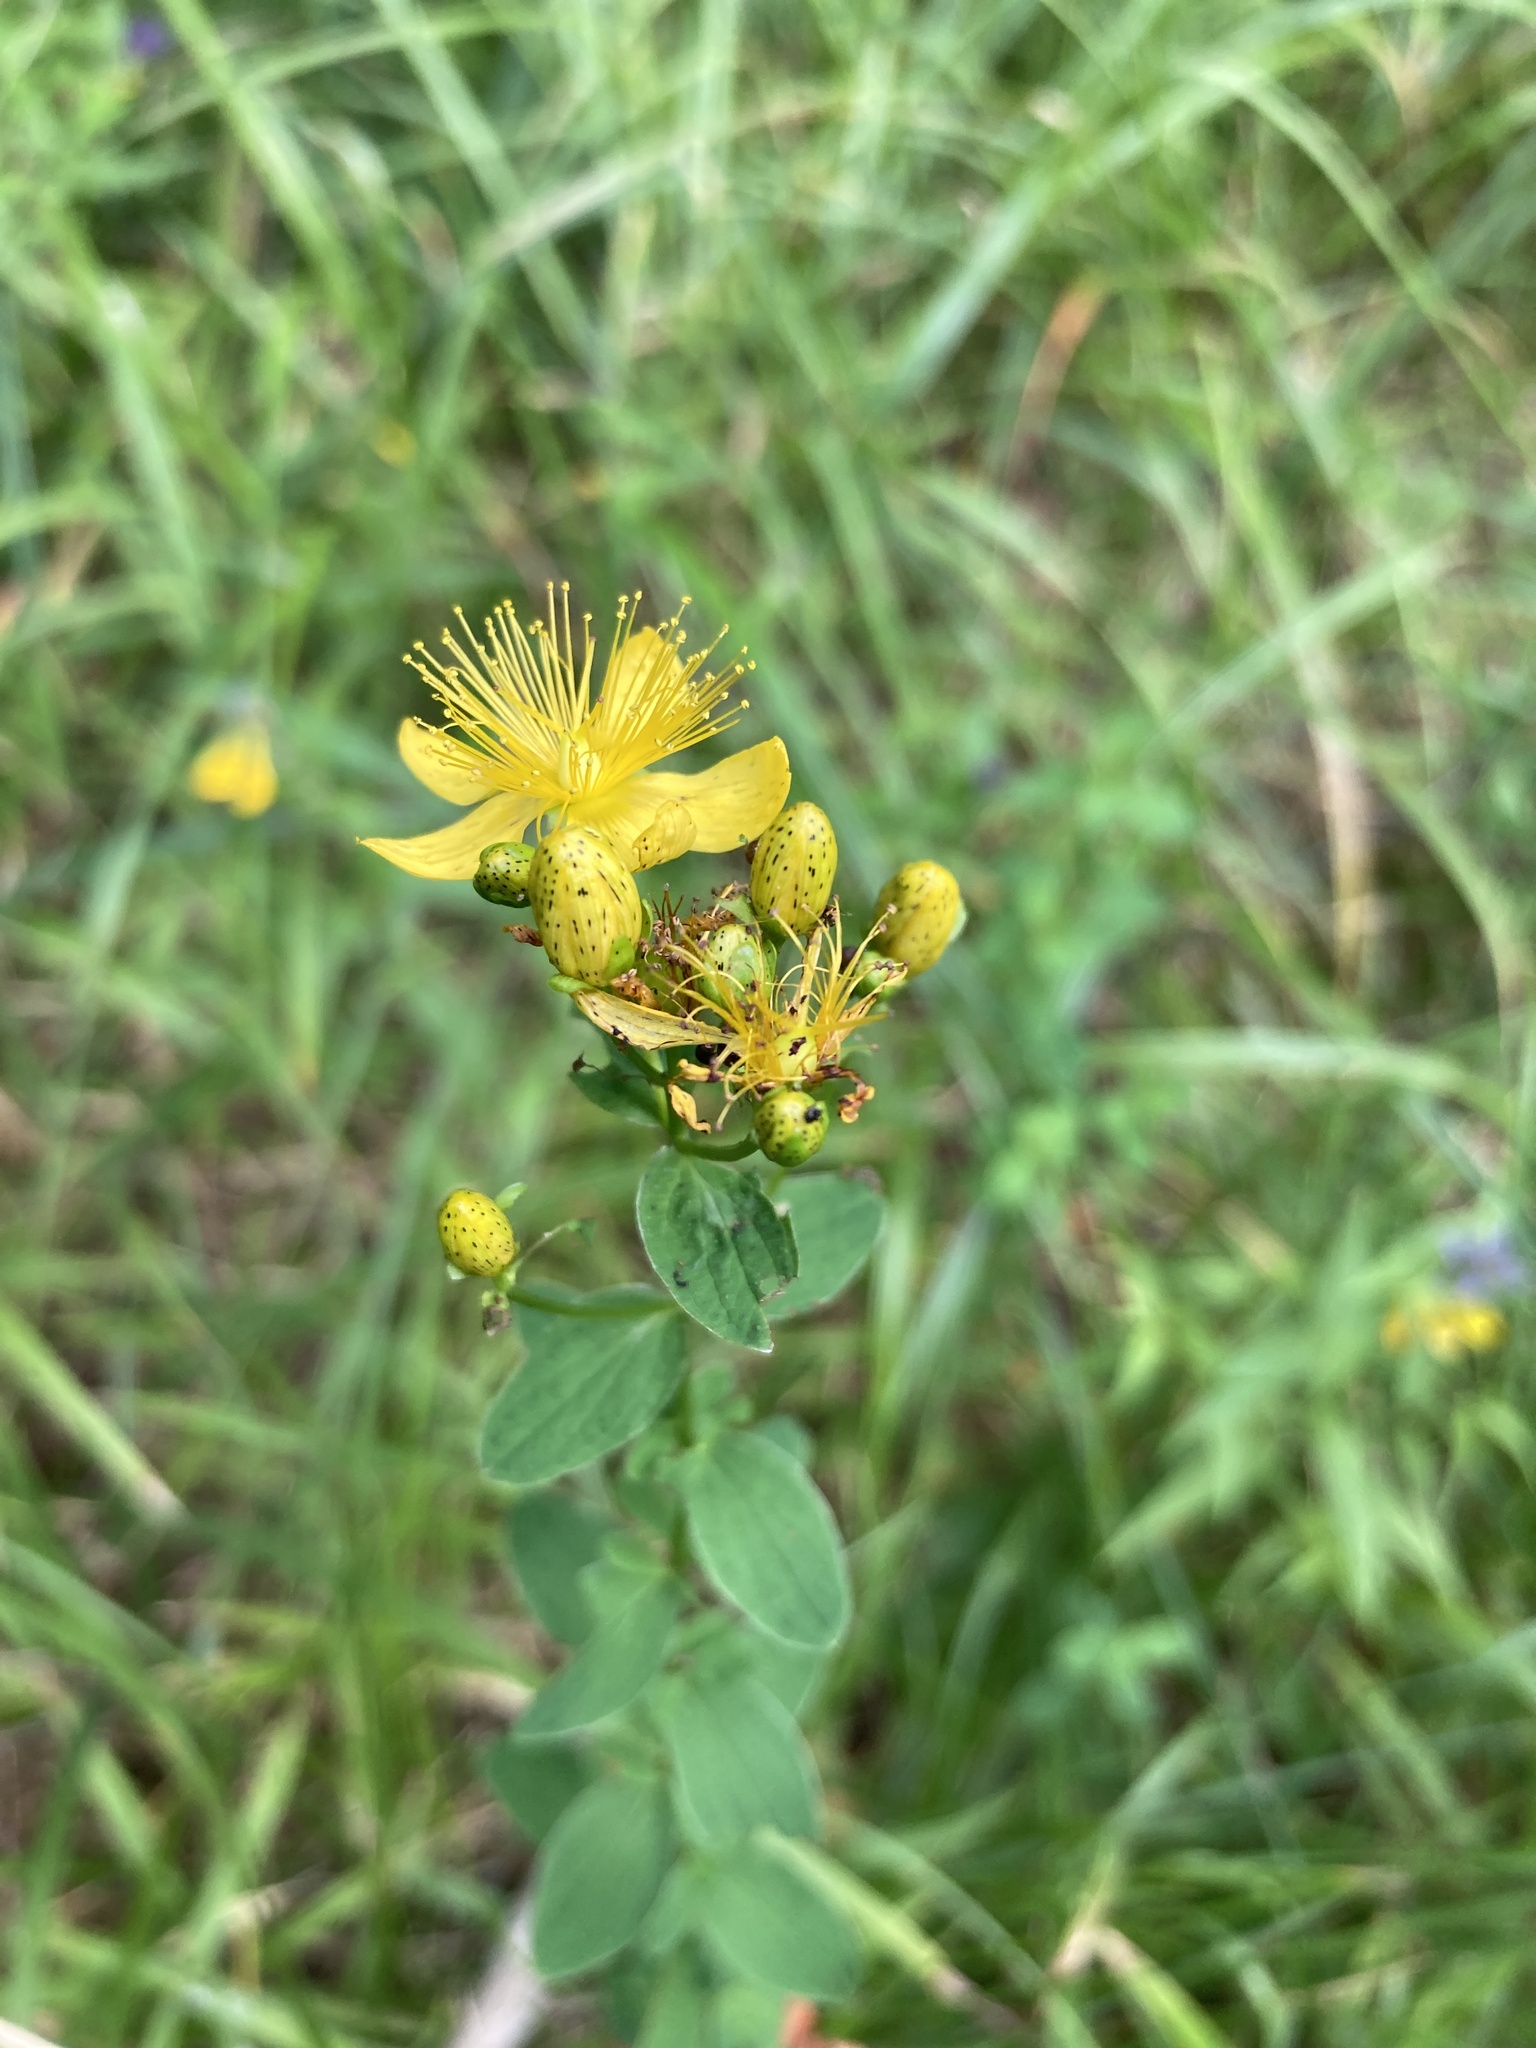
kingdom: Plantae
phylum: Tracheophyta
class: Magnoliopsida
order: Malpighiales
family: Hypericaceae
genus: Hypericum
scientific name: Hypericum maculatum
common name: Imperforate st. john's-wort
